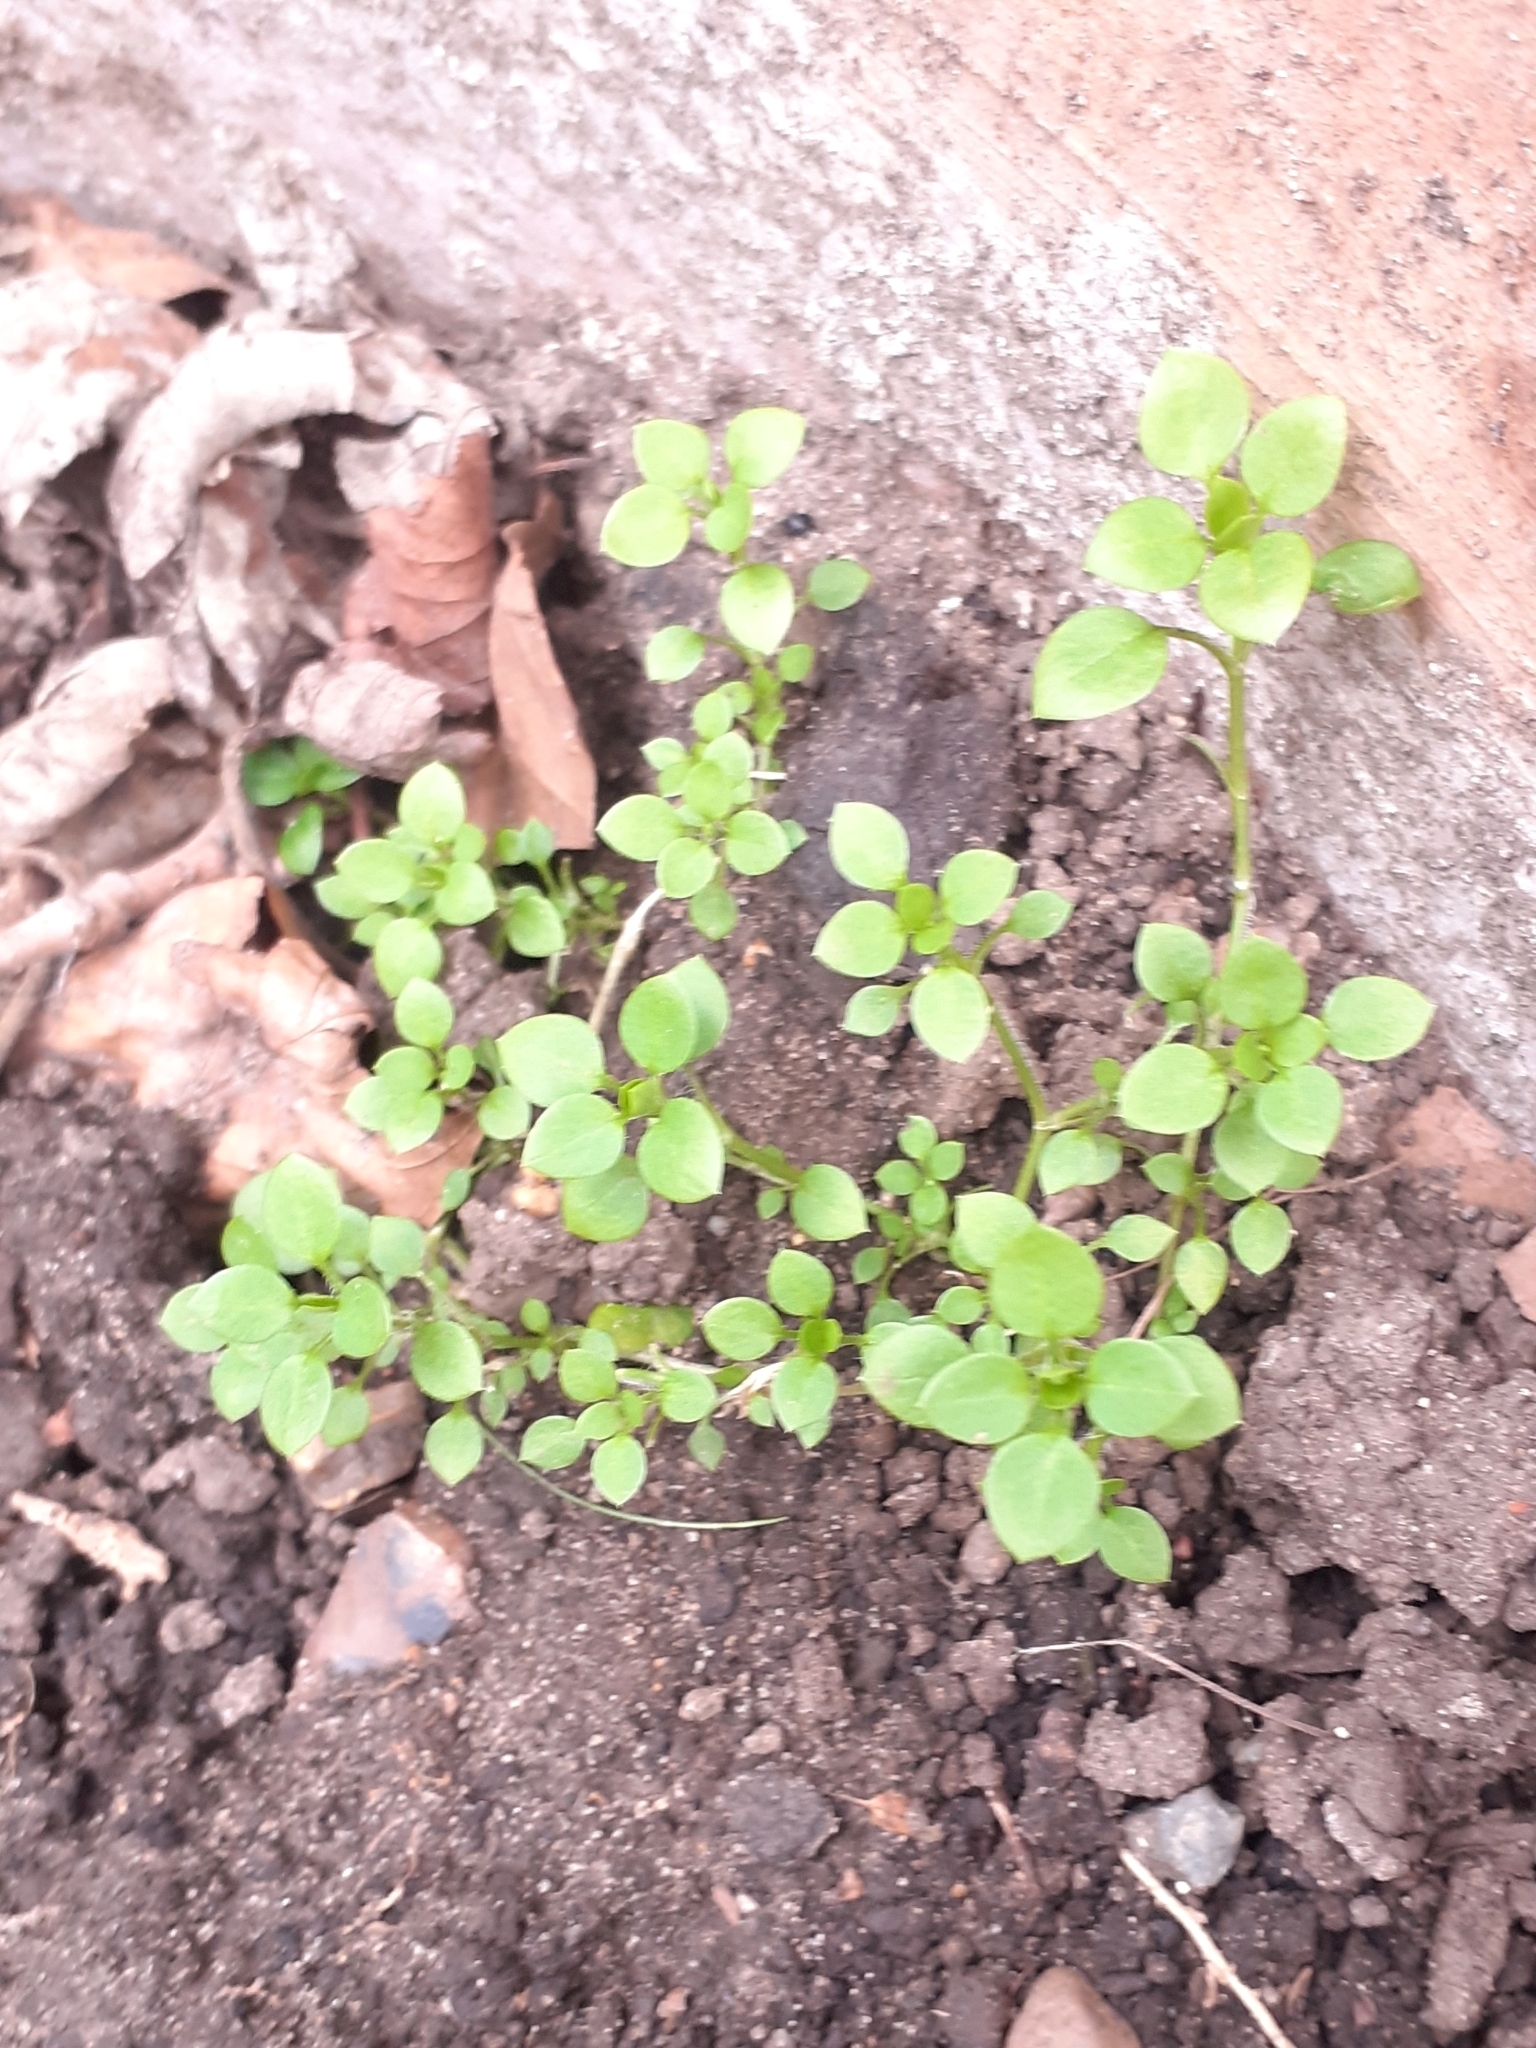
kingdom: Plantae
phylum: Tracheophyta
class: Magnoliopsida
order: Caryophyllales
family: Caryophyllaceae
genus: Stellaria
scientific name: Stellaria media
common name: Common chickweed
